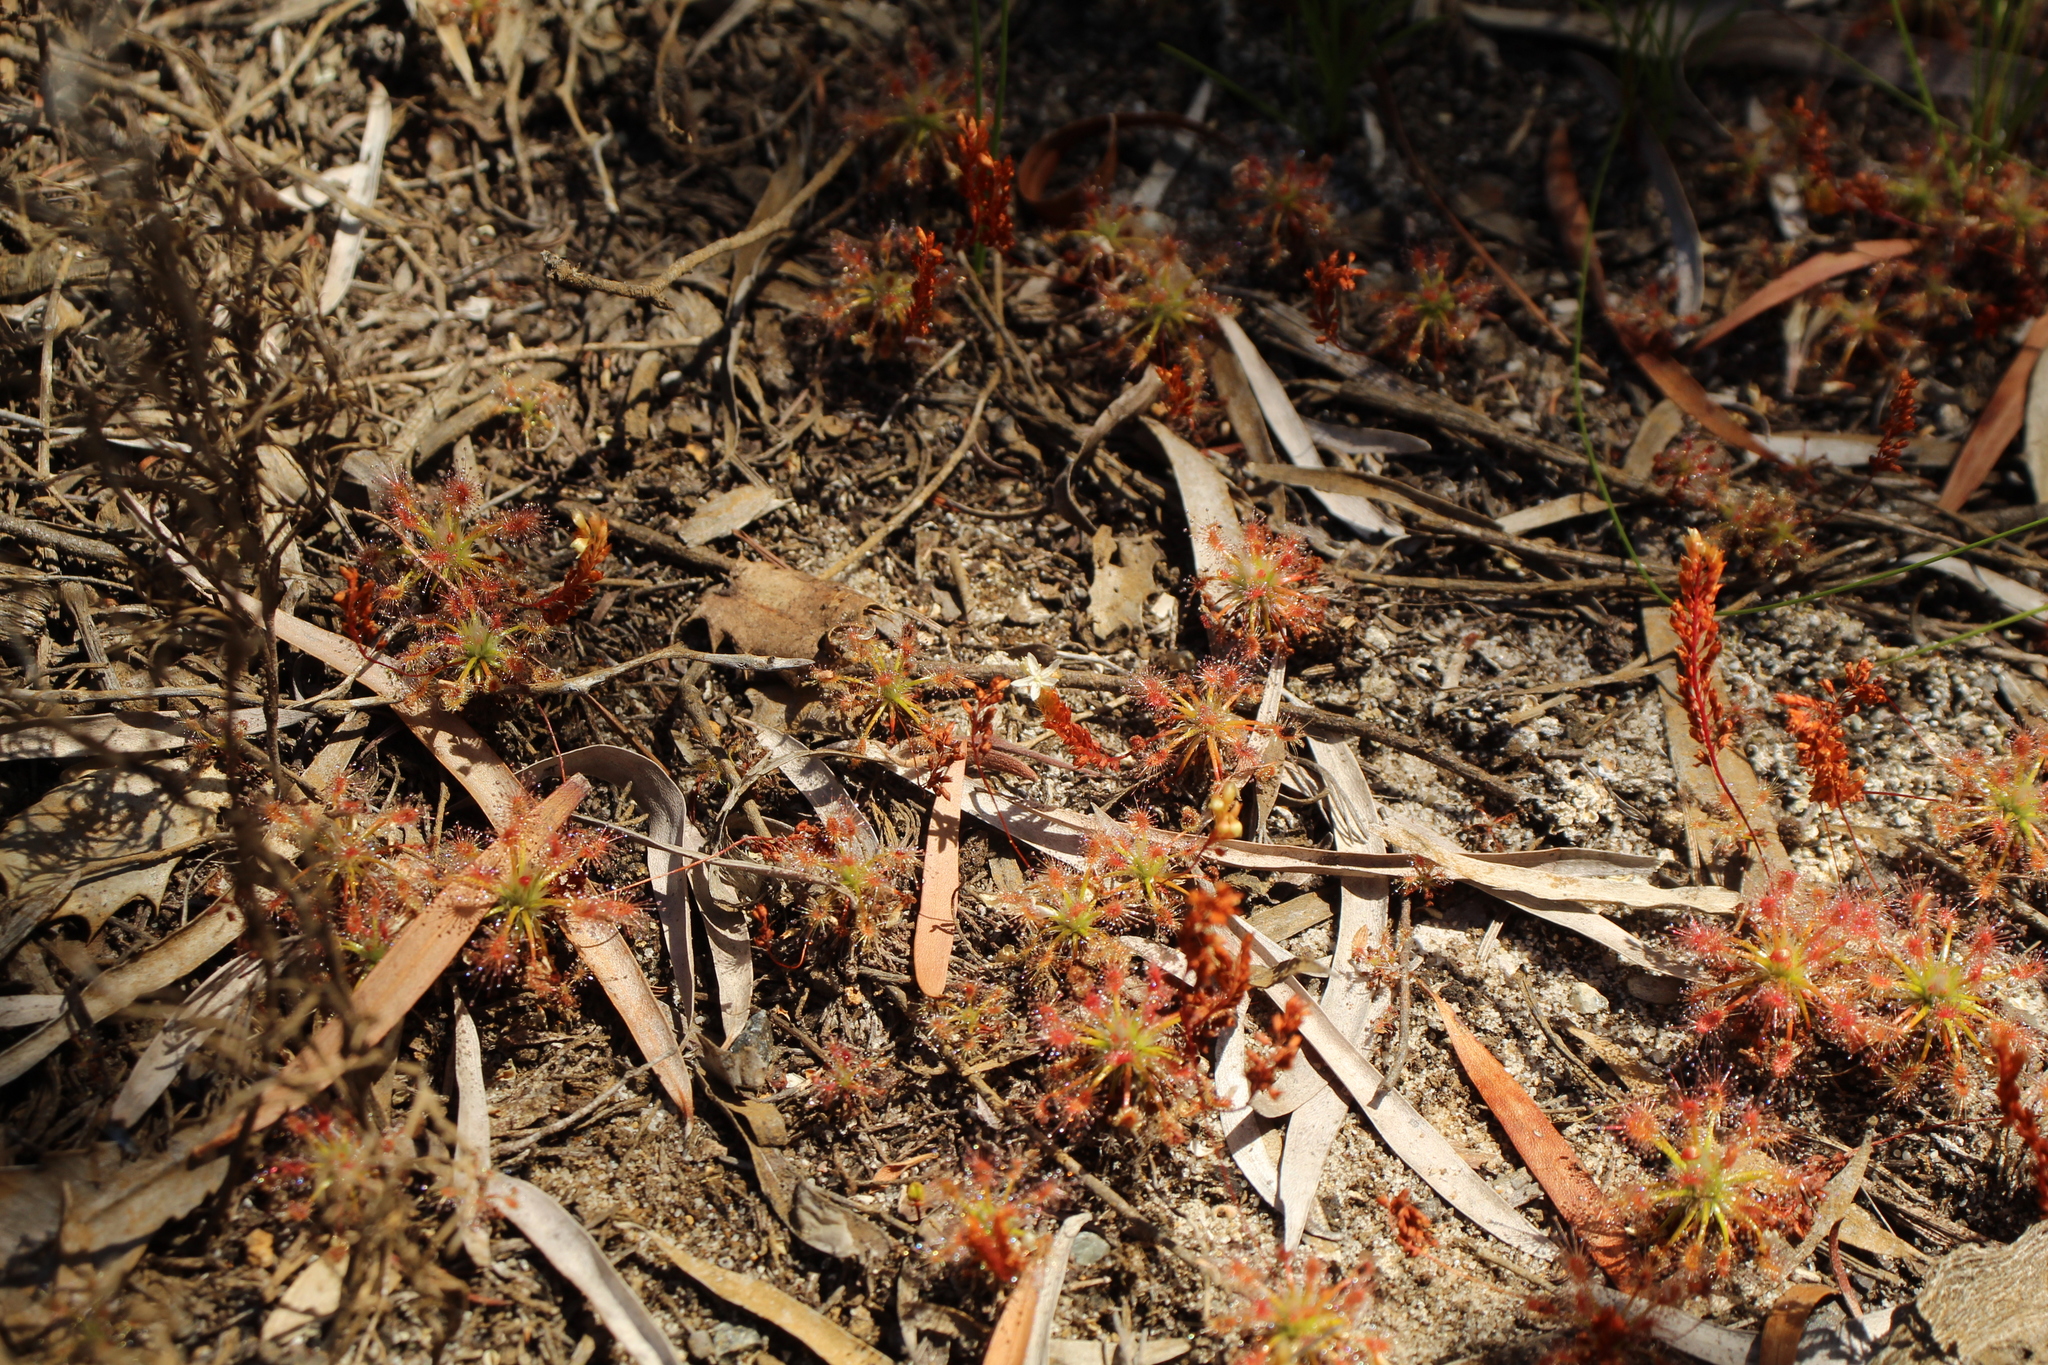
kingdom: Plantae
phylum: Tracheophyta
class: Magnoliopsida
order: Caryophyllales
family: Droseraceae
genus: Drosera
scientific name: Drosera paleacea
